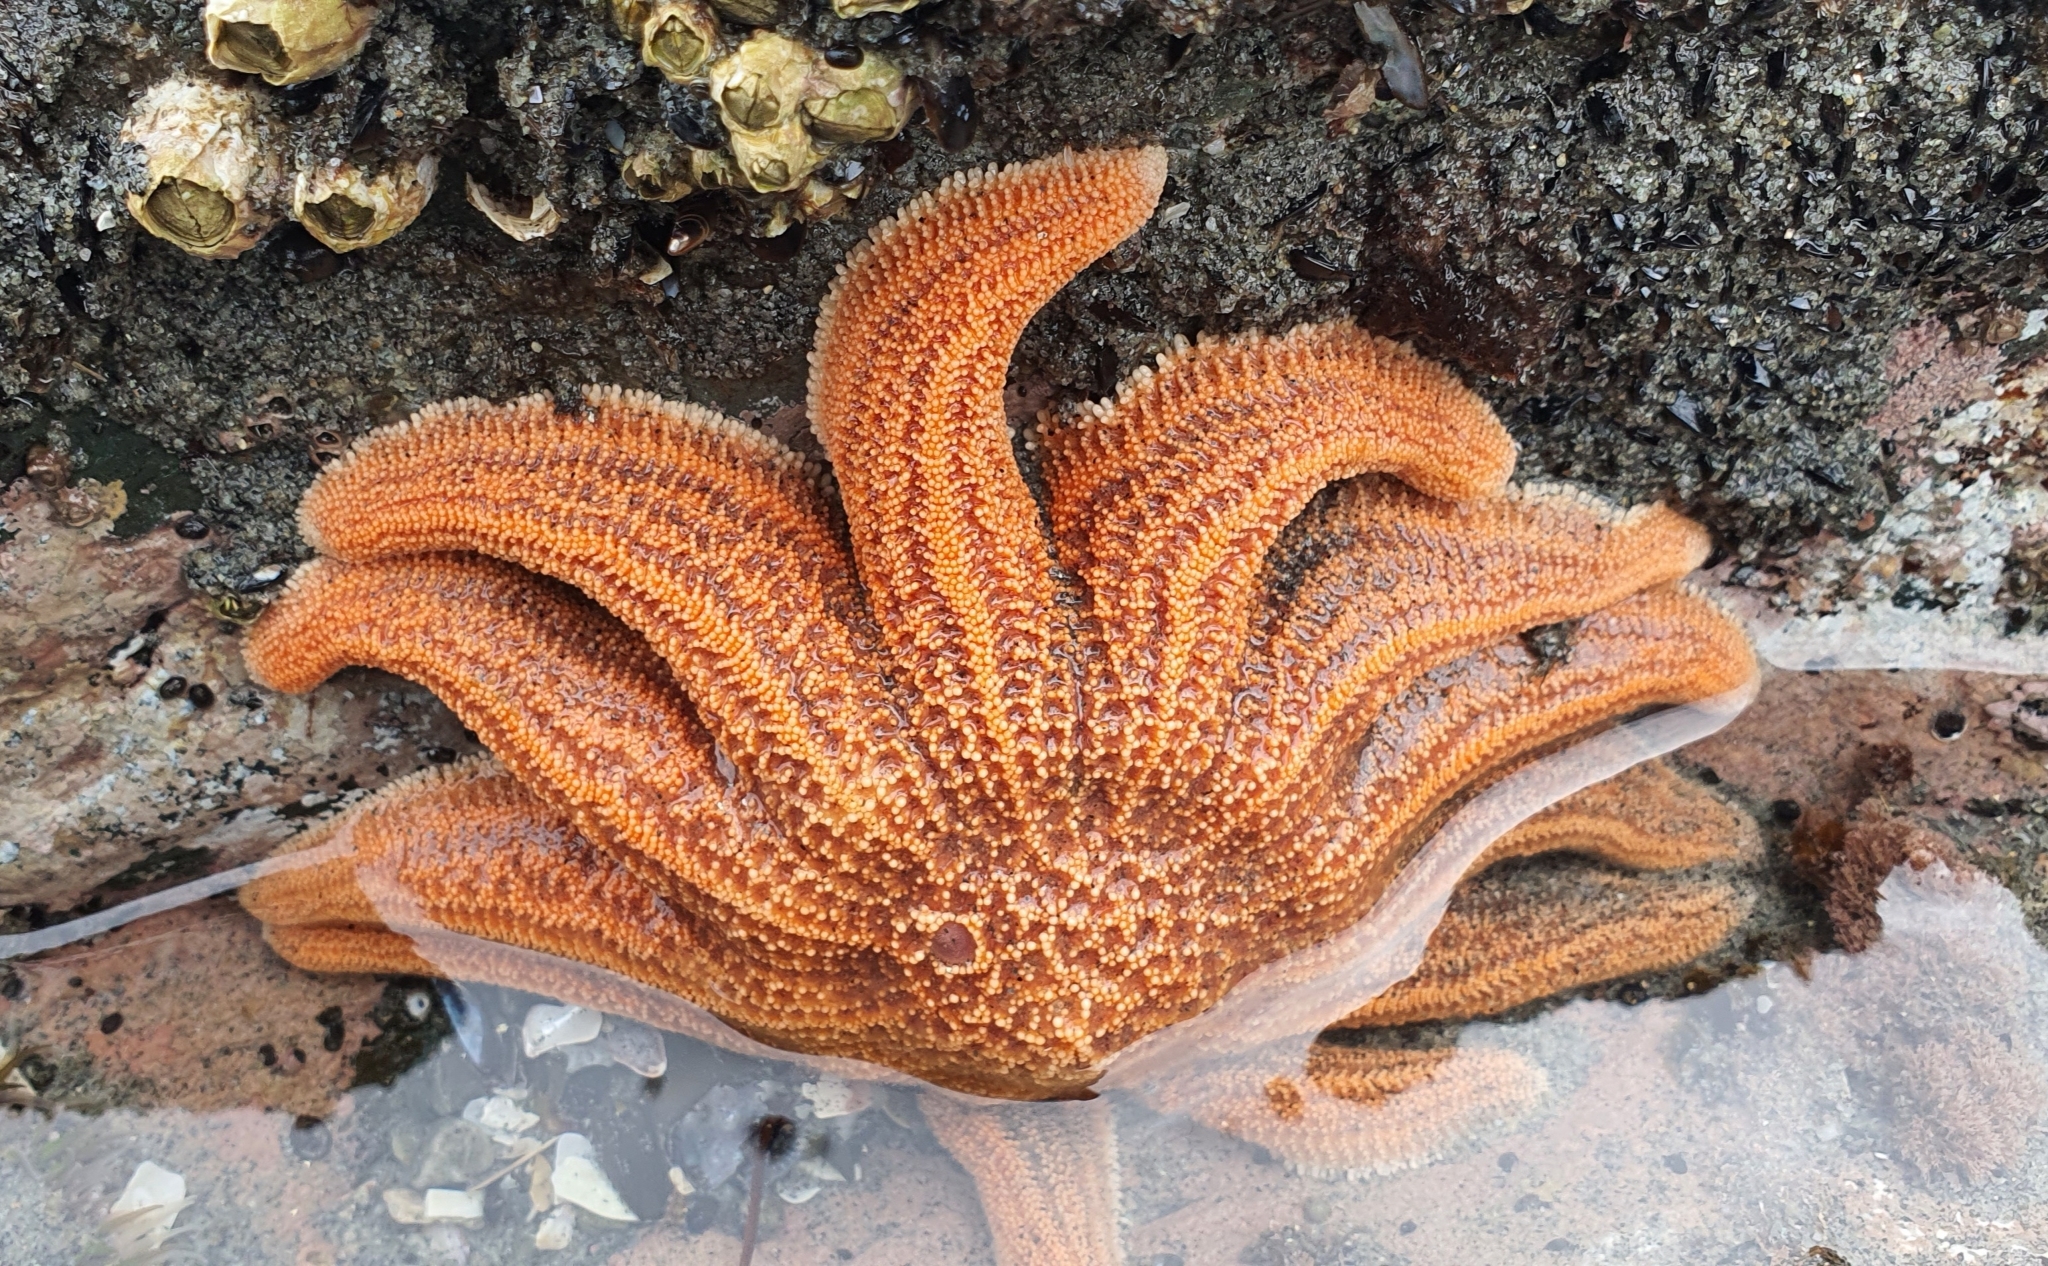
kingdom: Animalia
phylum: Echinodermata
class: Asteroidea
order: Forcipulatida
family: Stichasteridae
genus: Stichaster
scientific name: Stichaster australis
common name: Reef starfish
